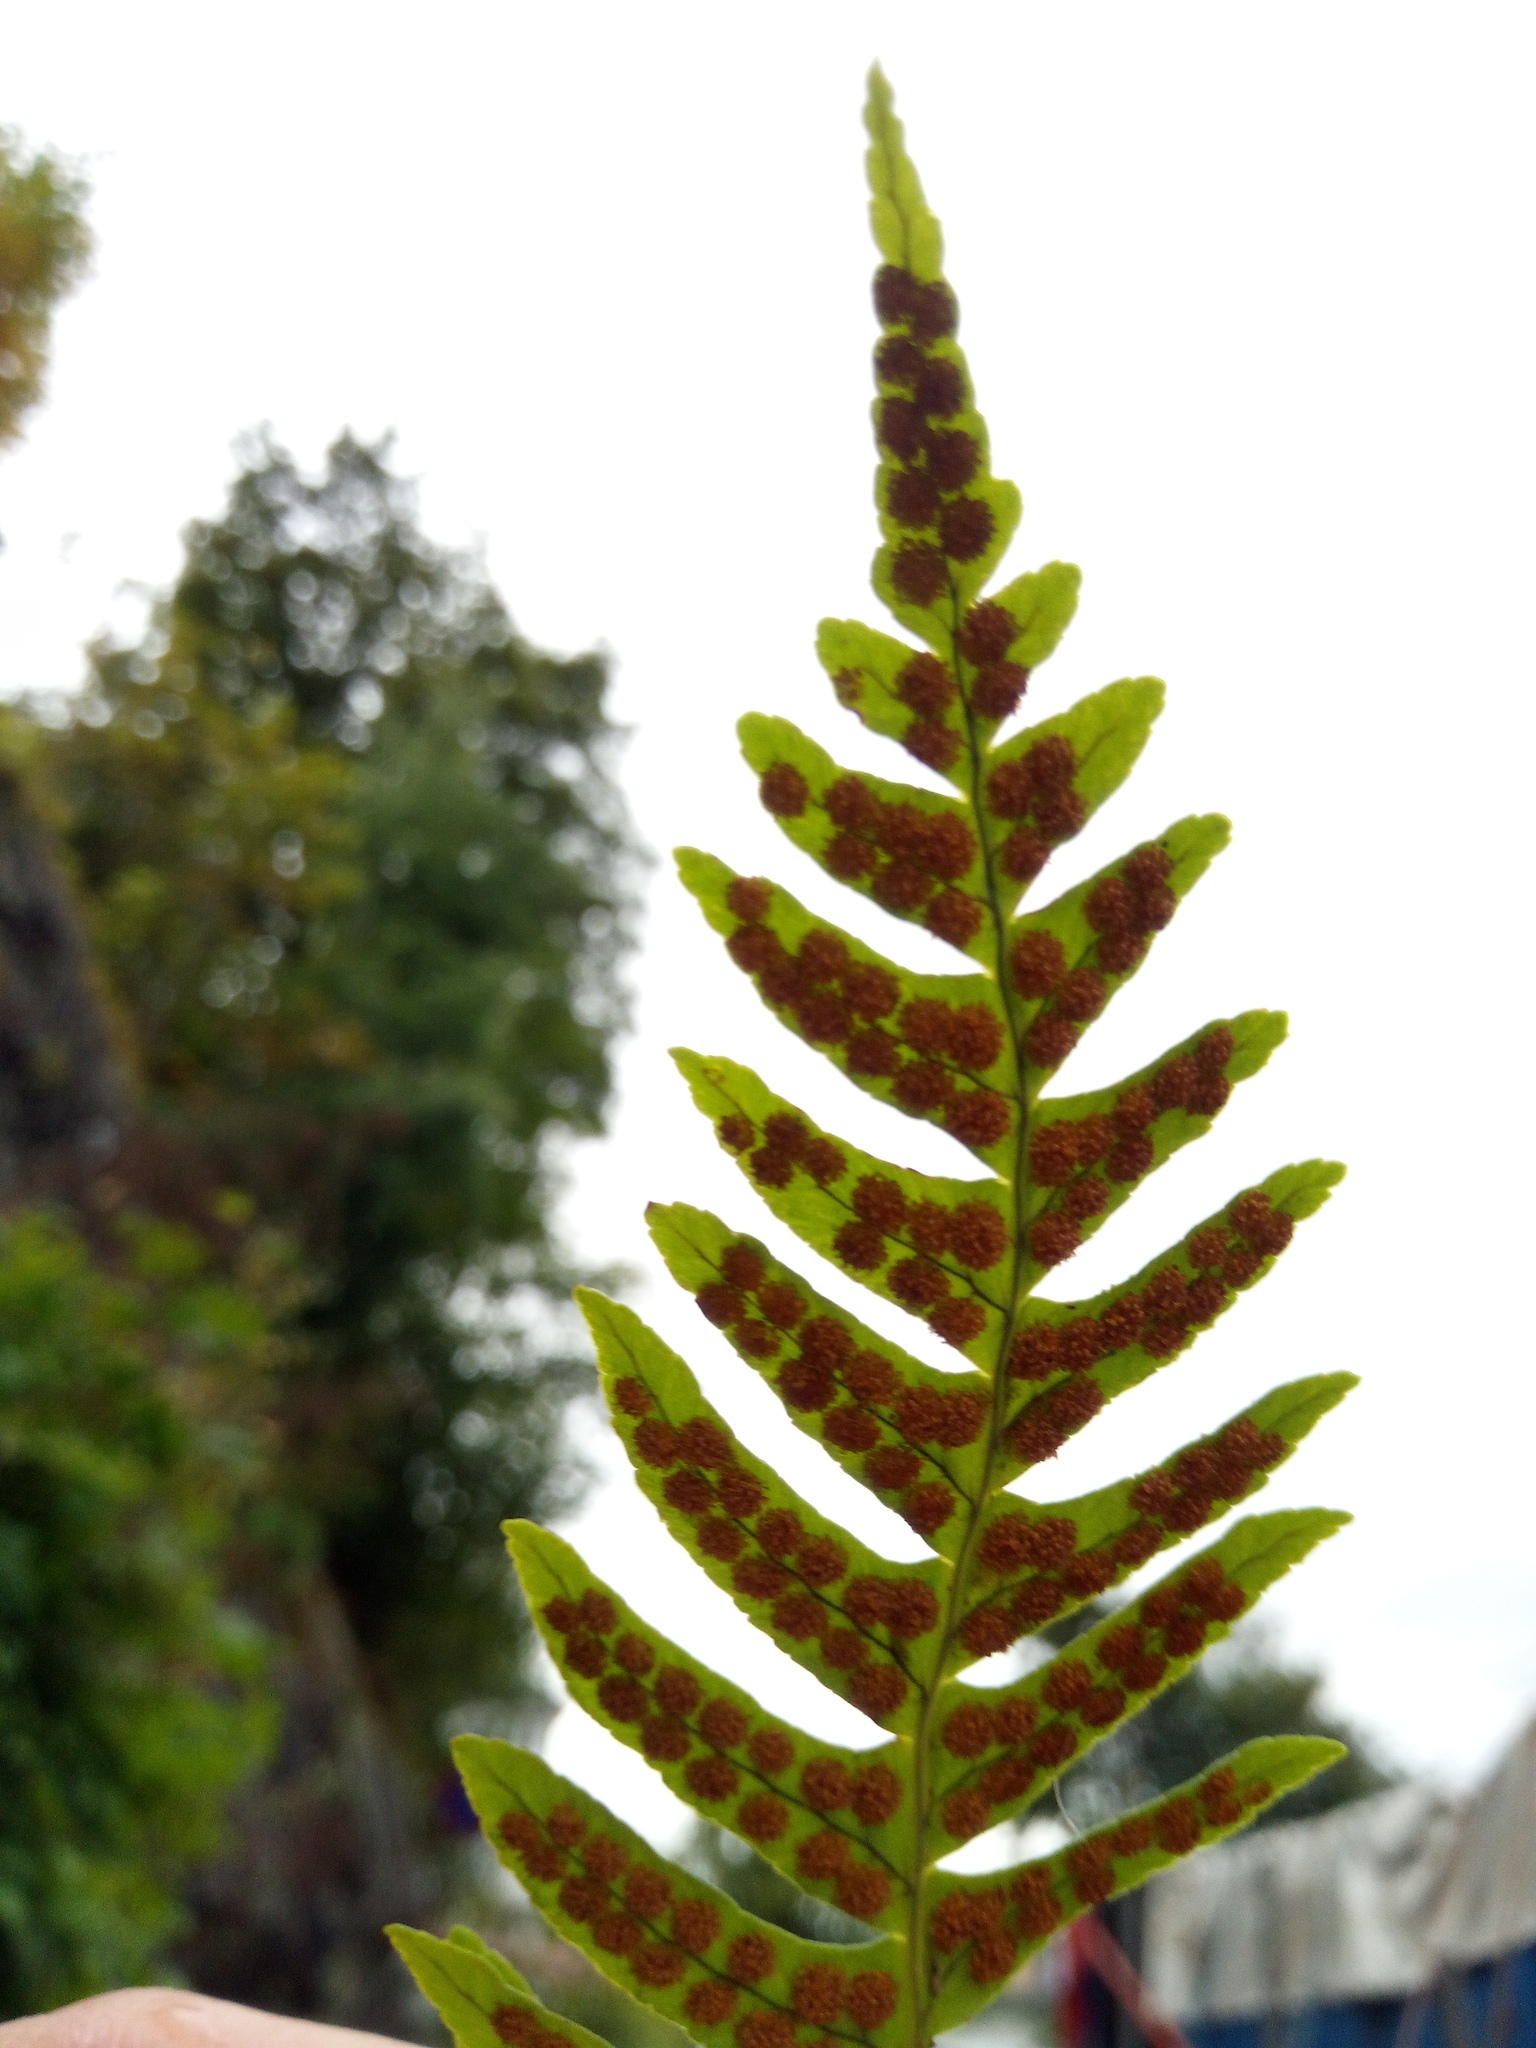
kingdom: Plantae
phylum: Tracheophyta
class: Polypodiopsida
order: Polypodiales
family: Polypodiaceae
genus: Polypodium
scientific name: Polypodium vulgare
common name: Common polypody
